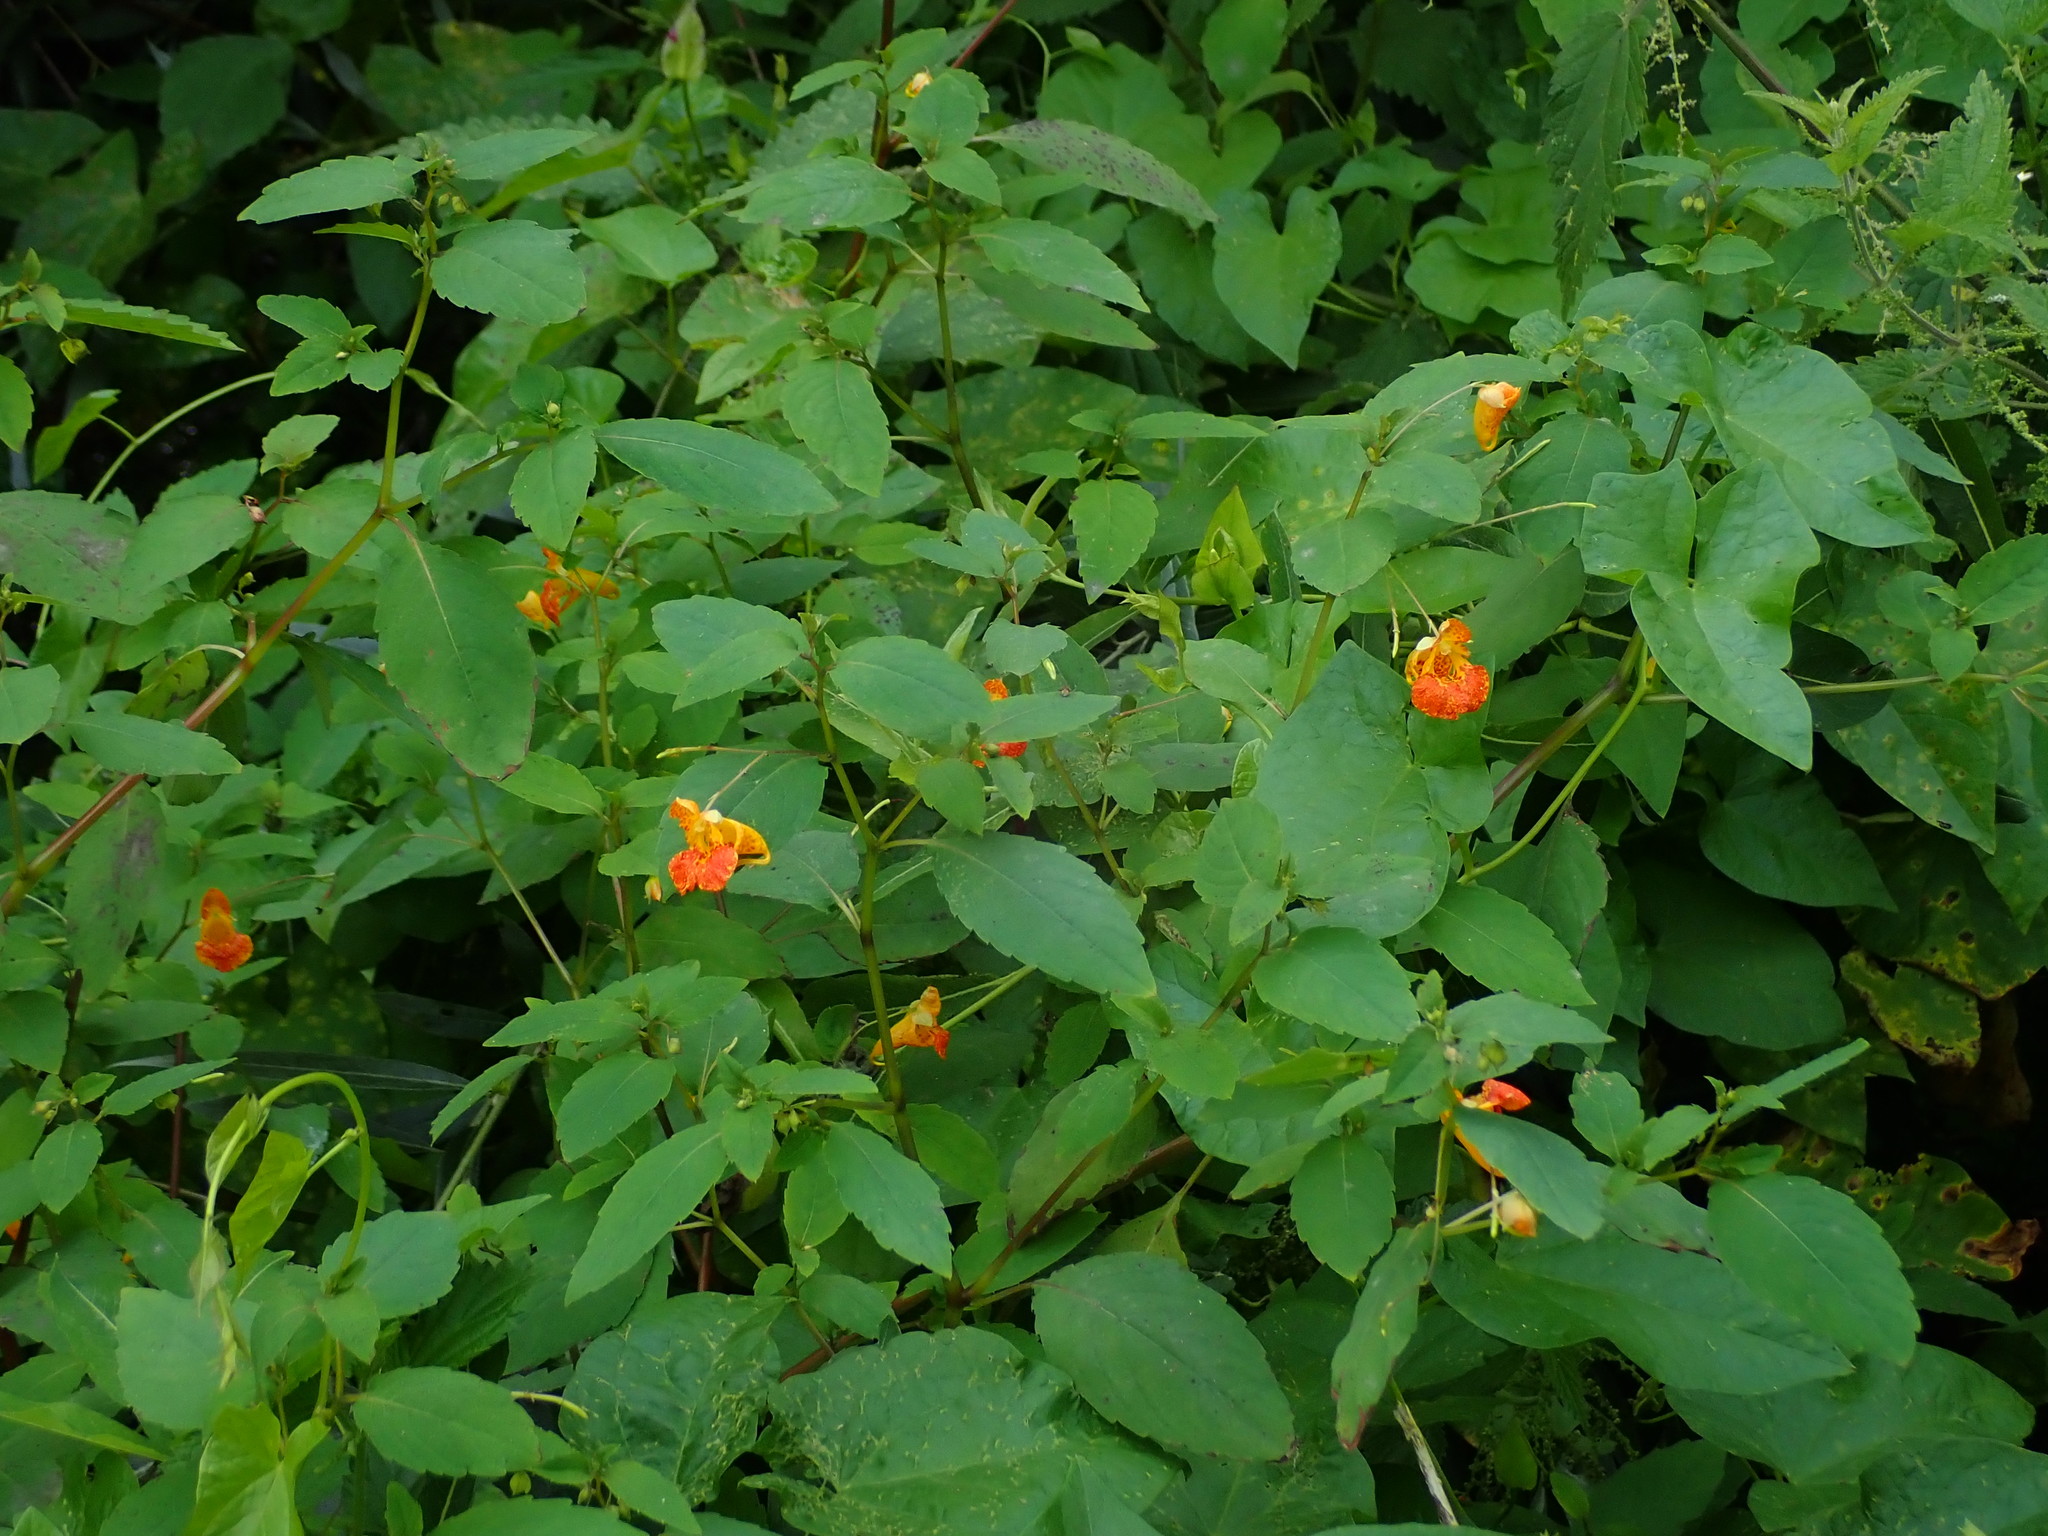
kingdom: Plantae
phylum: Tracheophyta
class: Magnoliopsida
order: Ericales
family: Balsaminaceae
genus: Impatiens
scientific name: Impatiens capensis
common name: Orange balsam
